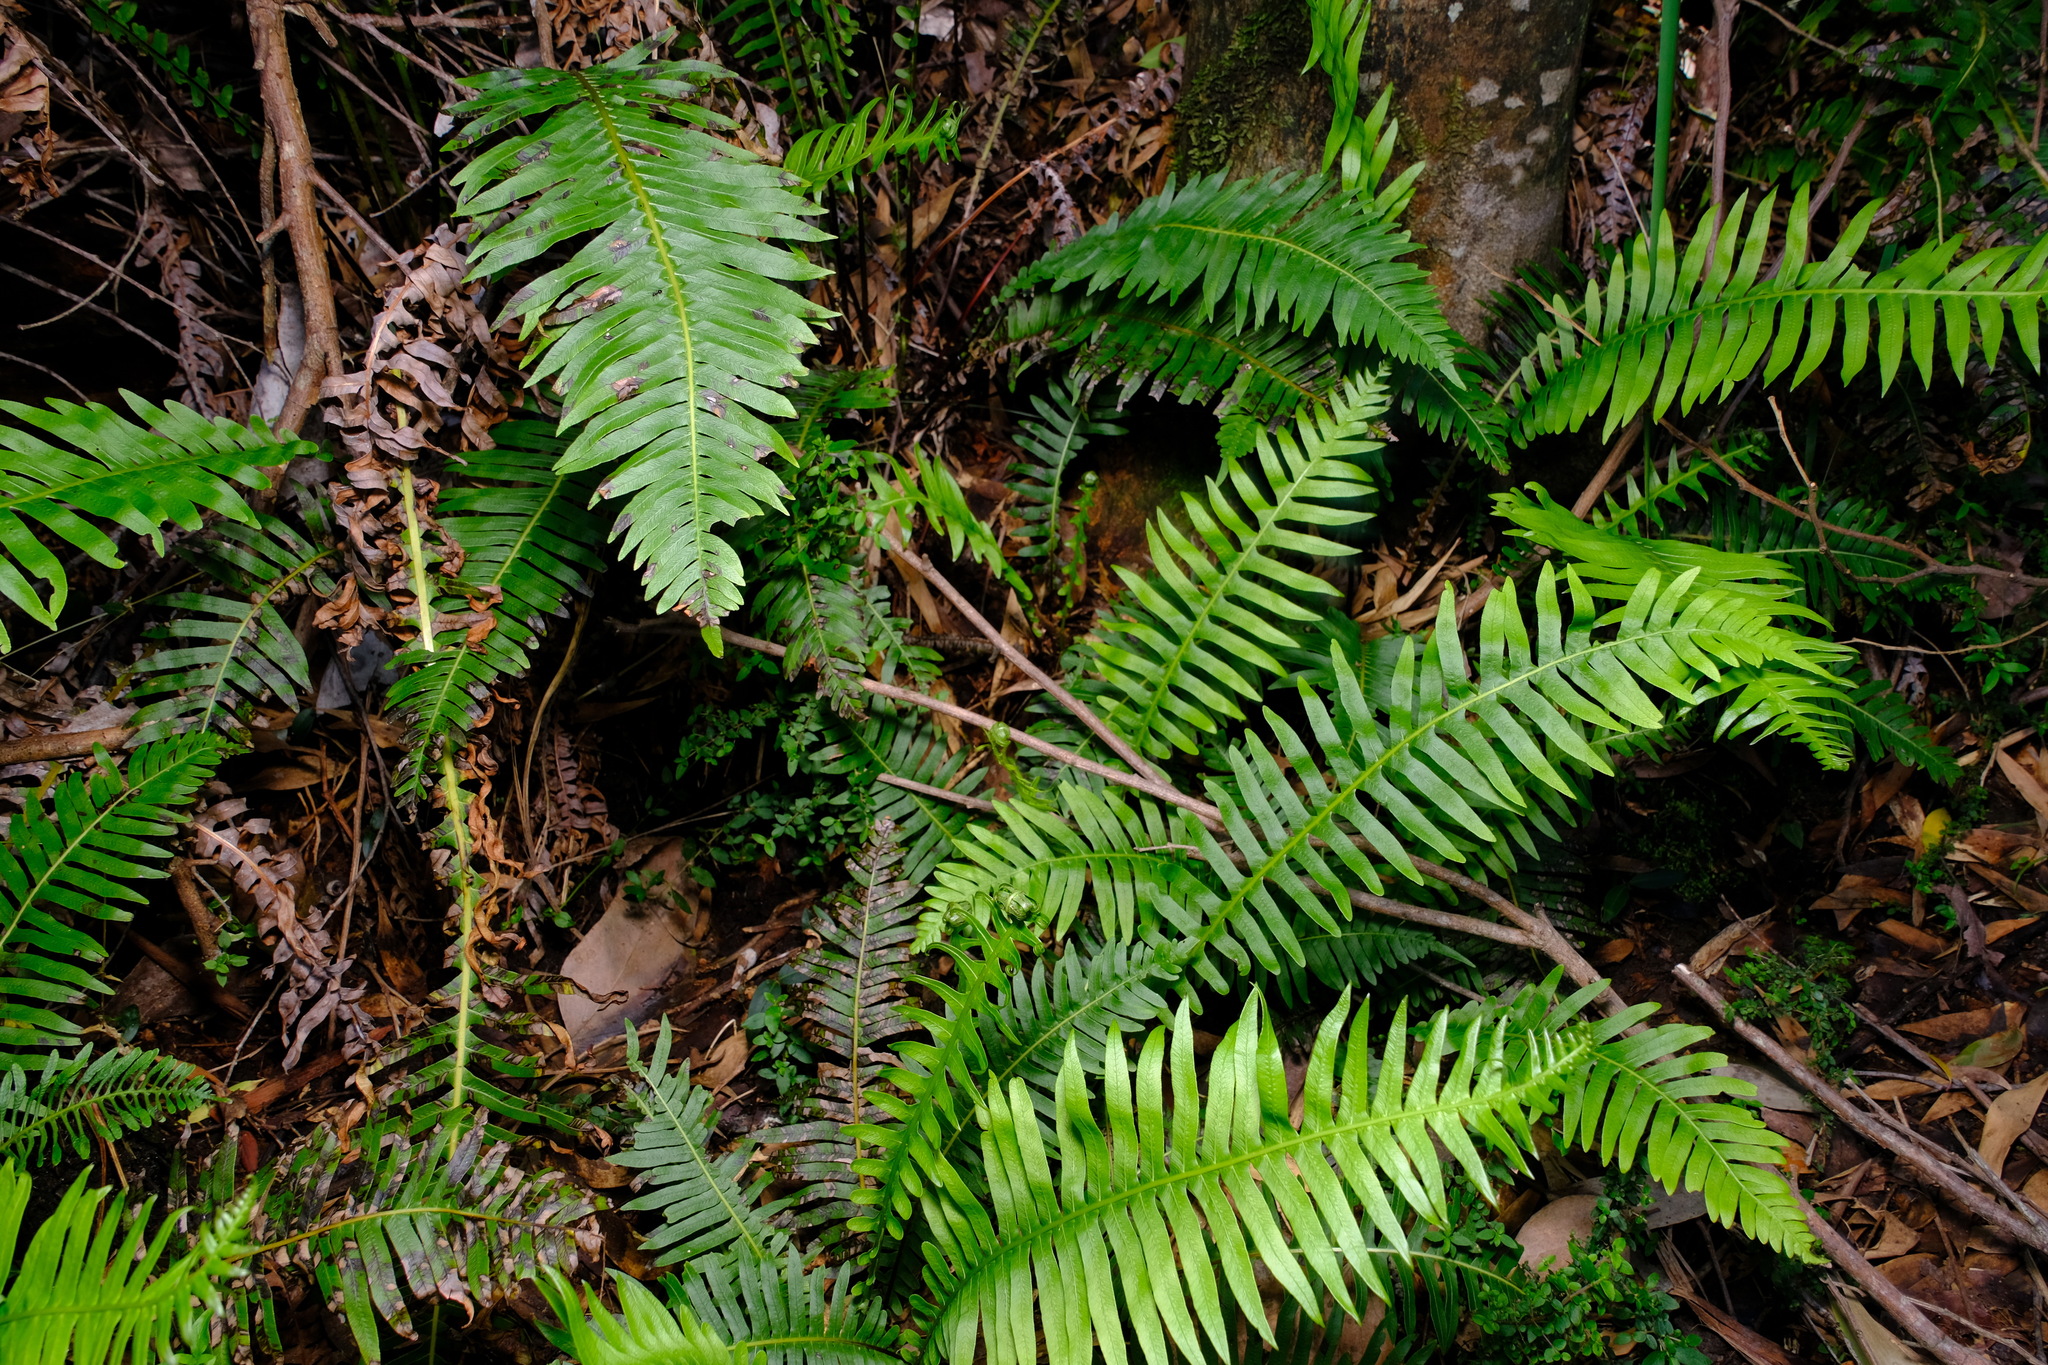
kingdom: Plantae
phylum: Tracheophyta
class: Polypodiopsida
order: Polypodiales
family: Blechnaceae
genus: Lomaria
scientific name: Lomaria nuda
